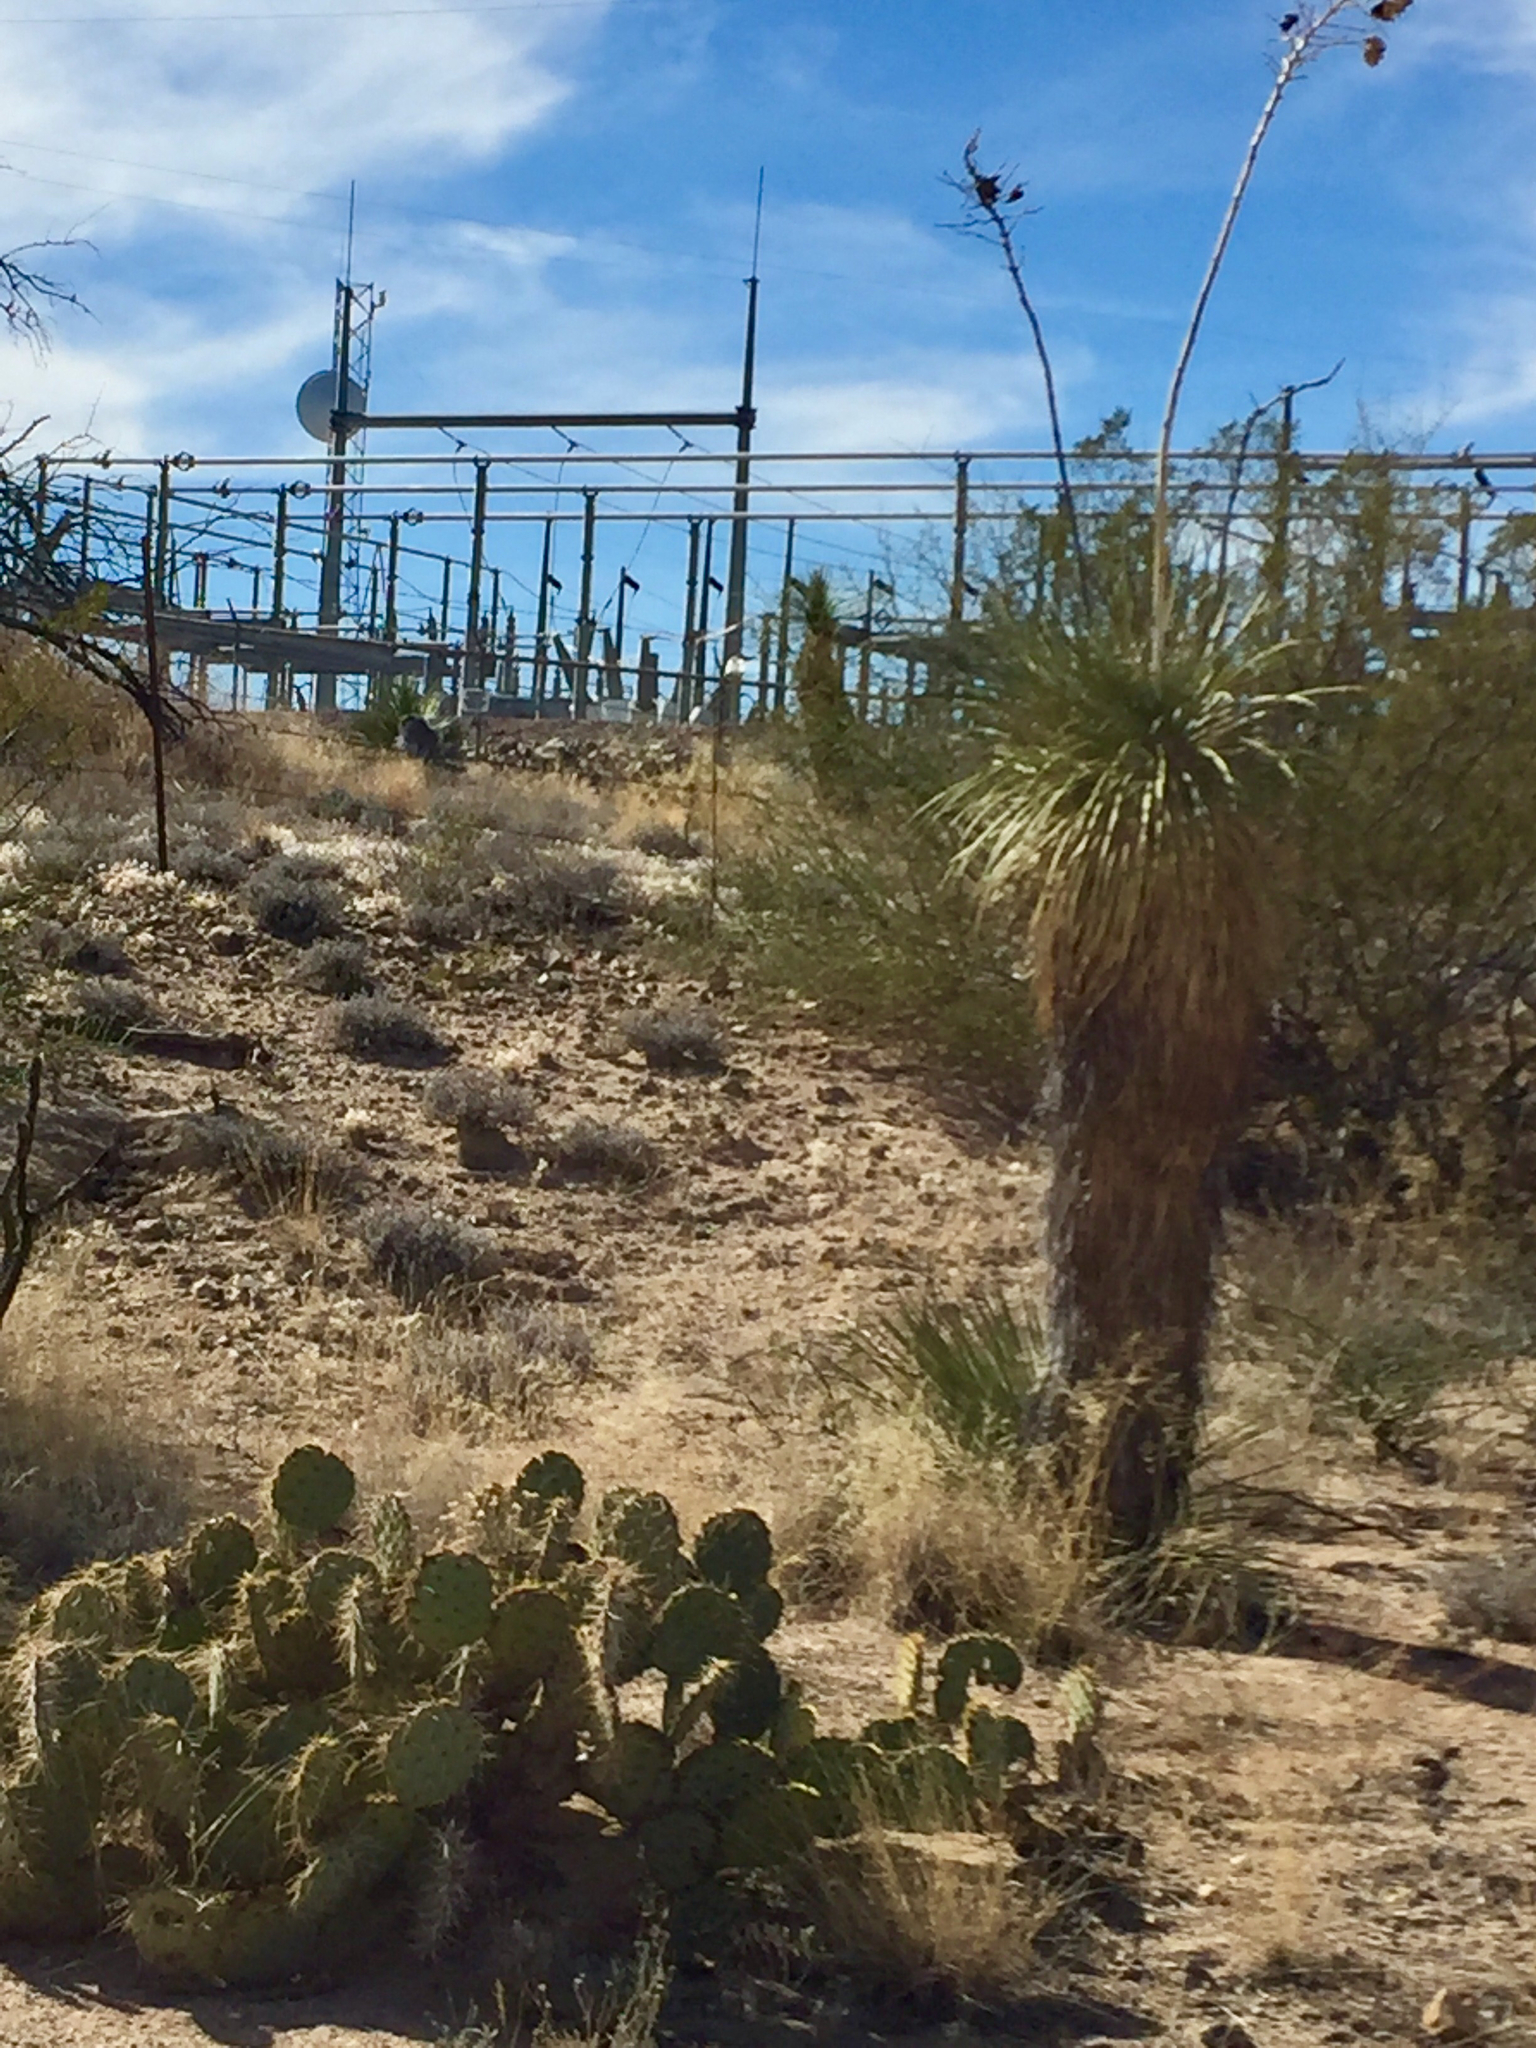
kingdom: Plantae
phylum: Tracheophyta
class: Liliopsida
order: Asparagales
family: Asparagaceae
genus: Yucca
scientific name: Yucca elata
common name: Palmella
